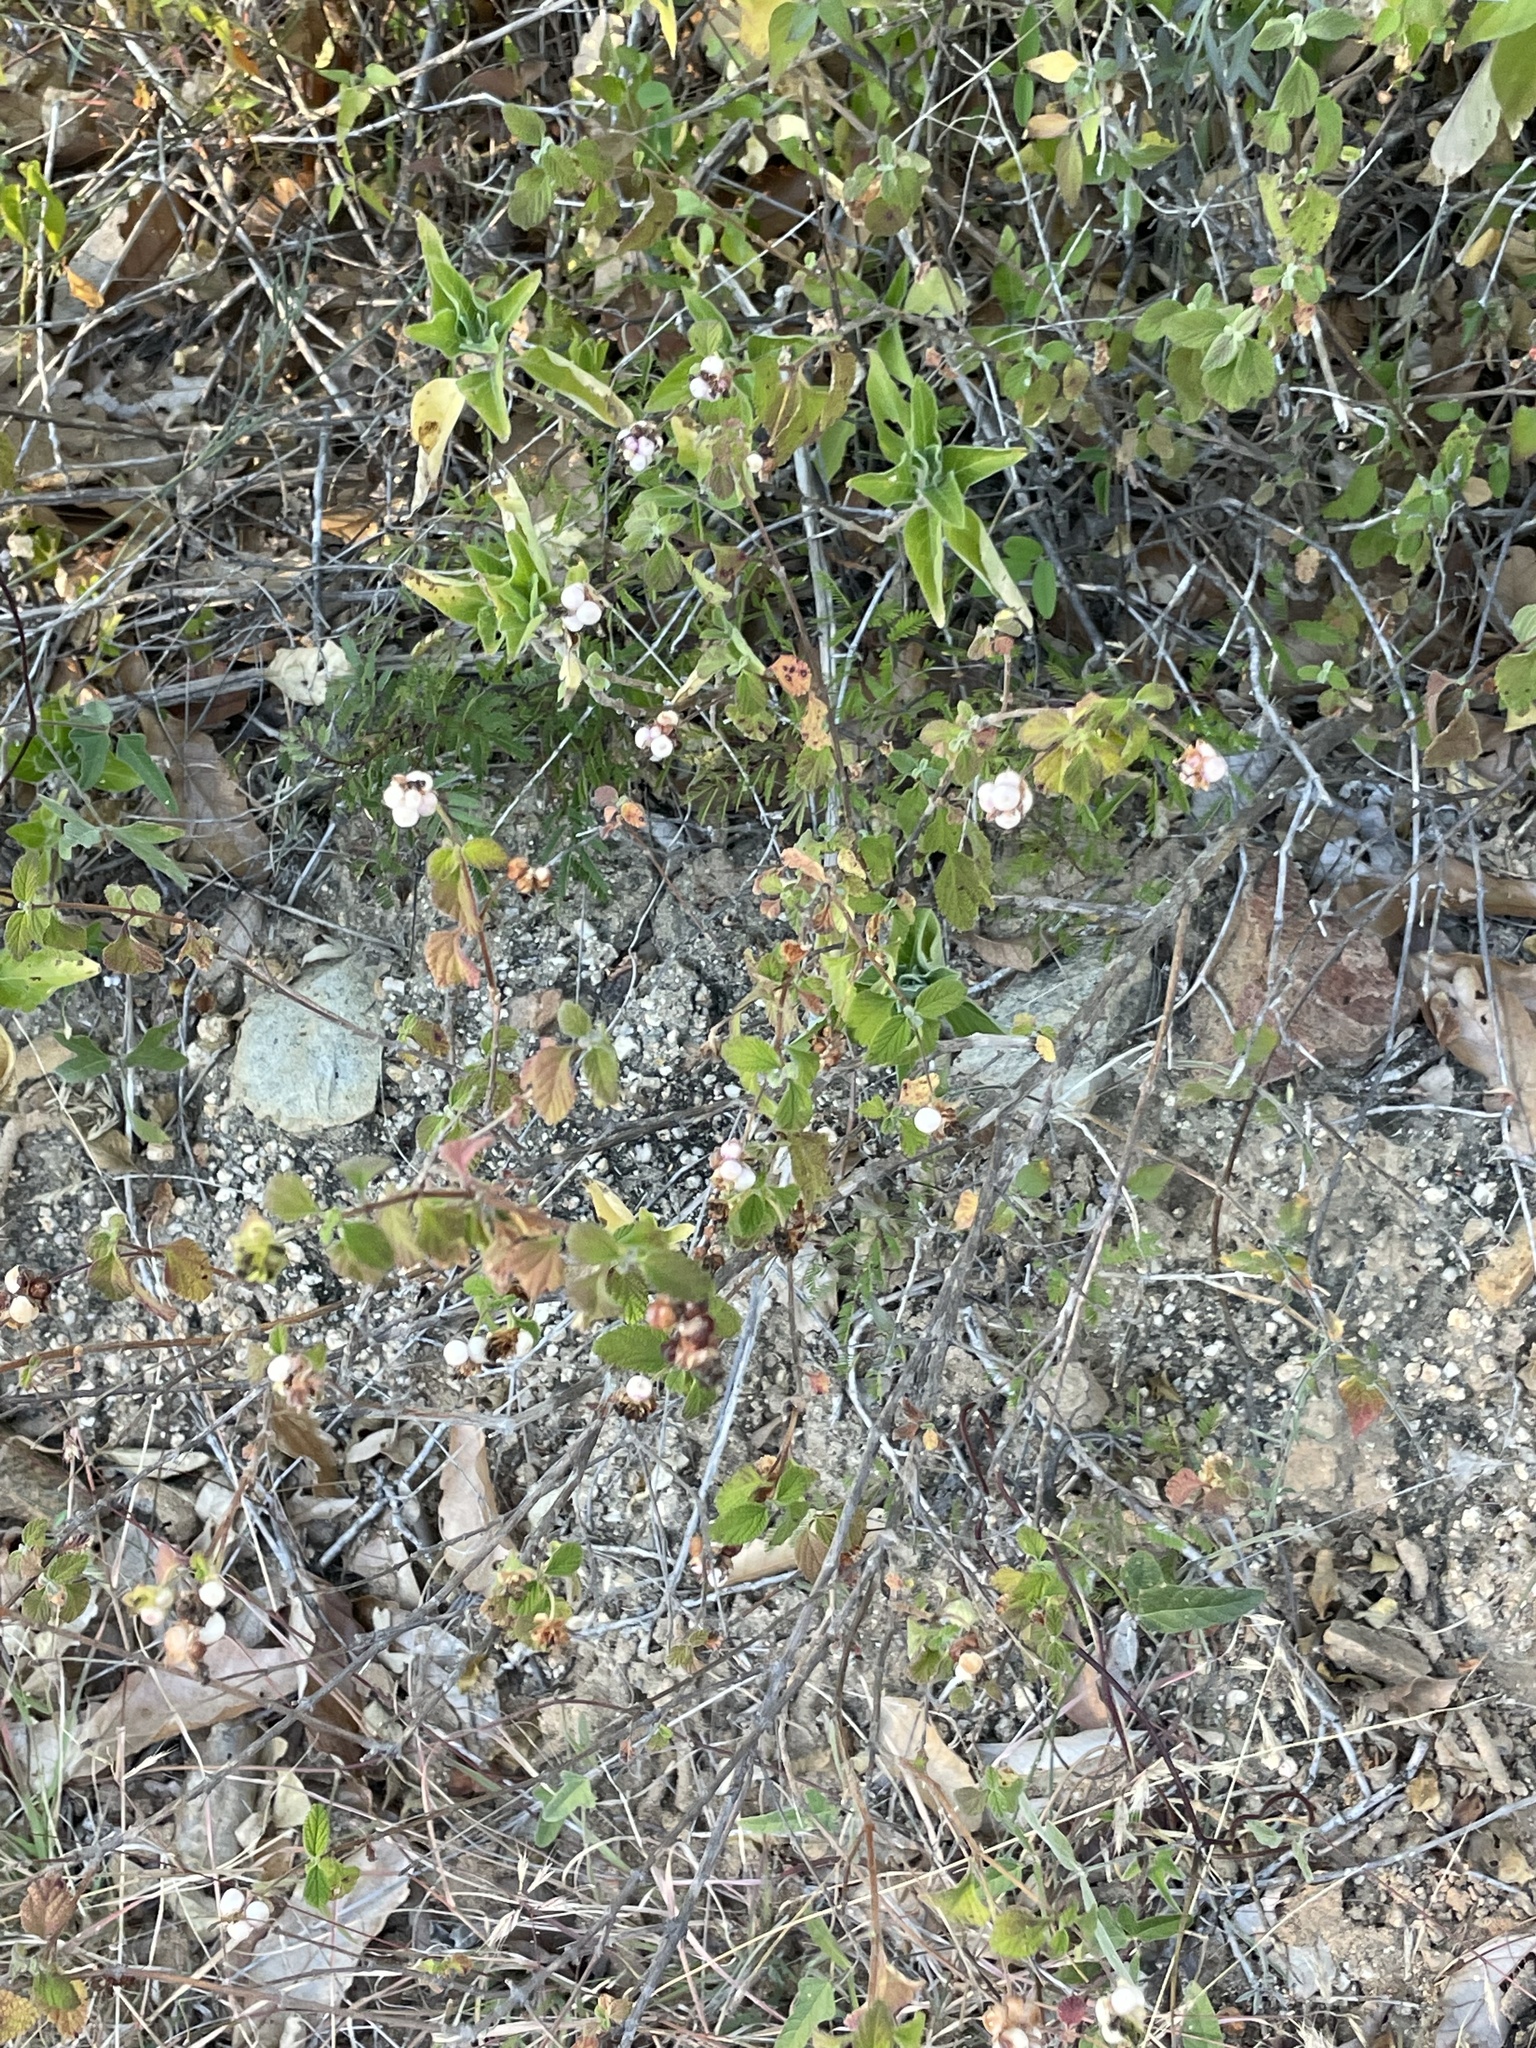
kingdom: Plantae
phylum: Tracheophyta
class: Magnoliopsida
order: Lamiales
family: Verbenaceae
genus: Lantana
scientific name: Lantana velutina
